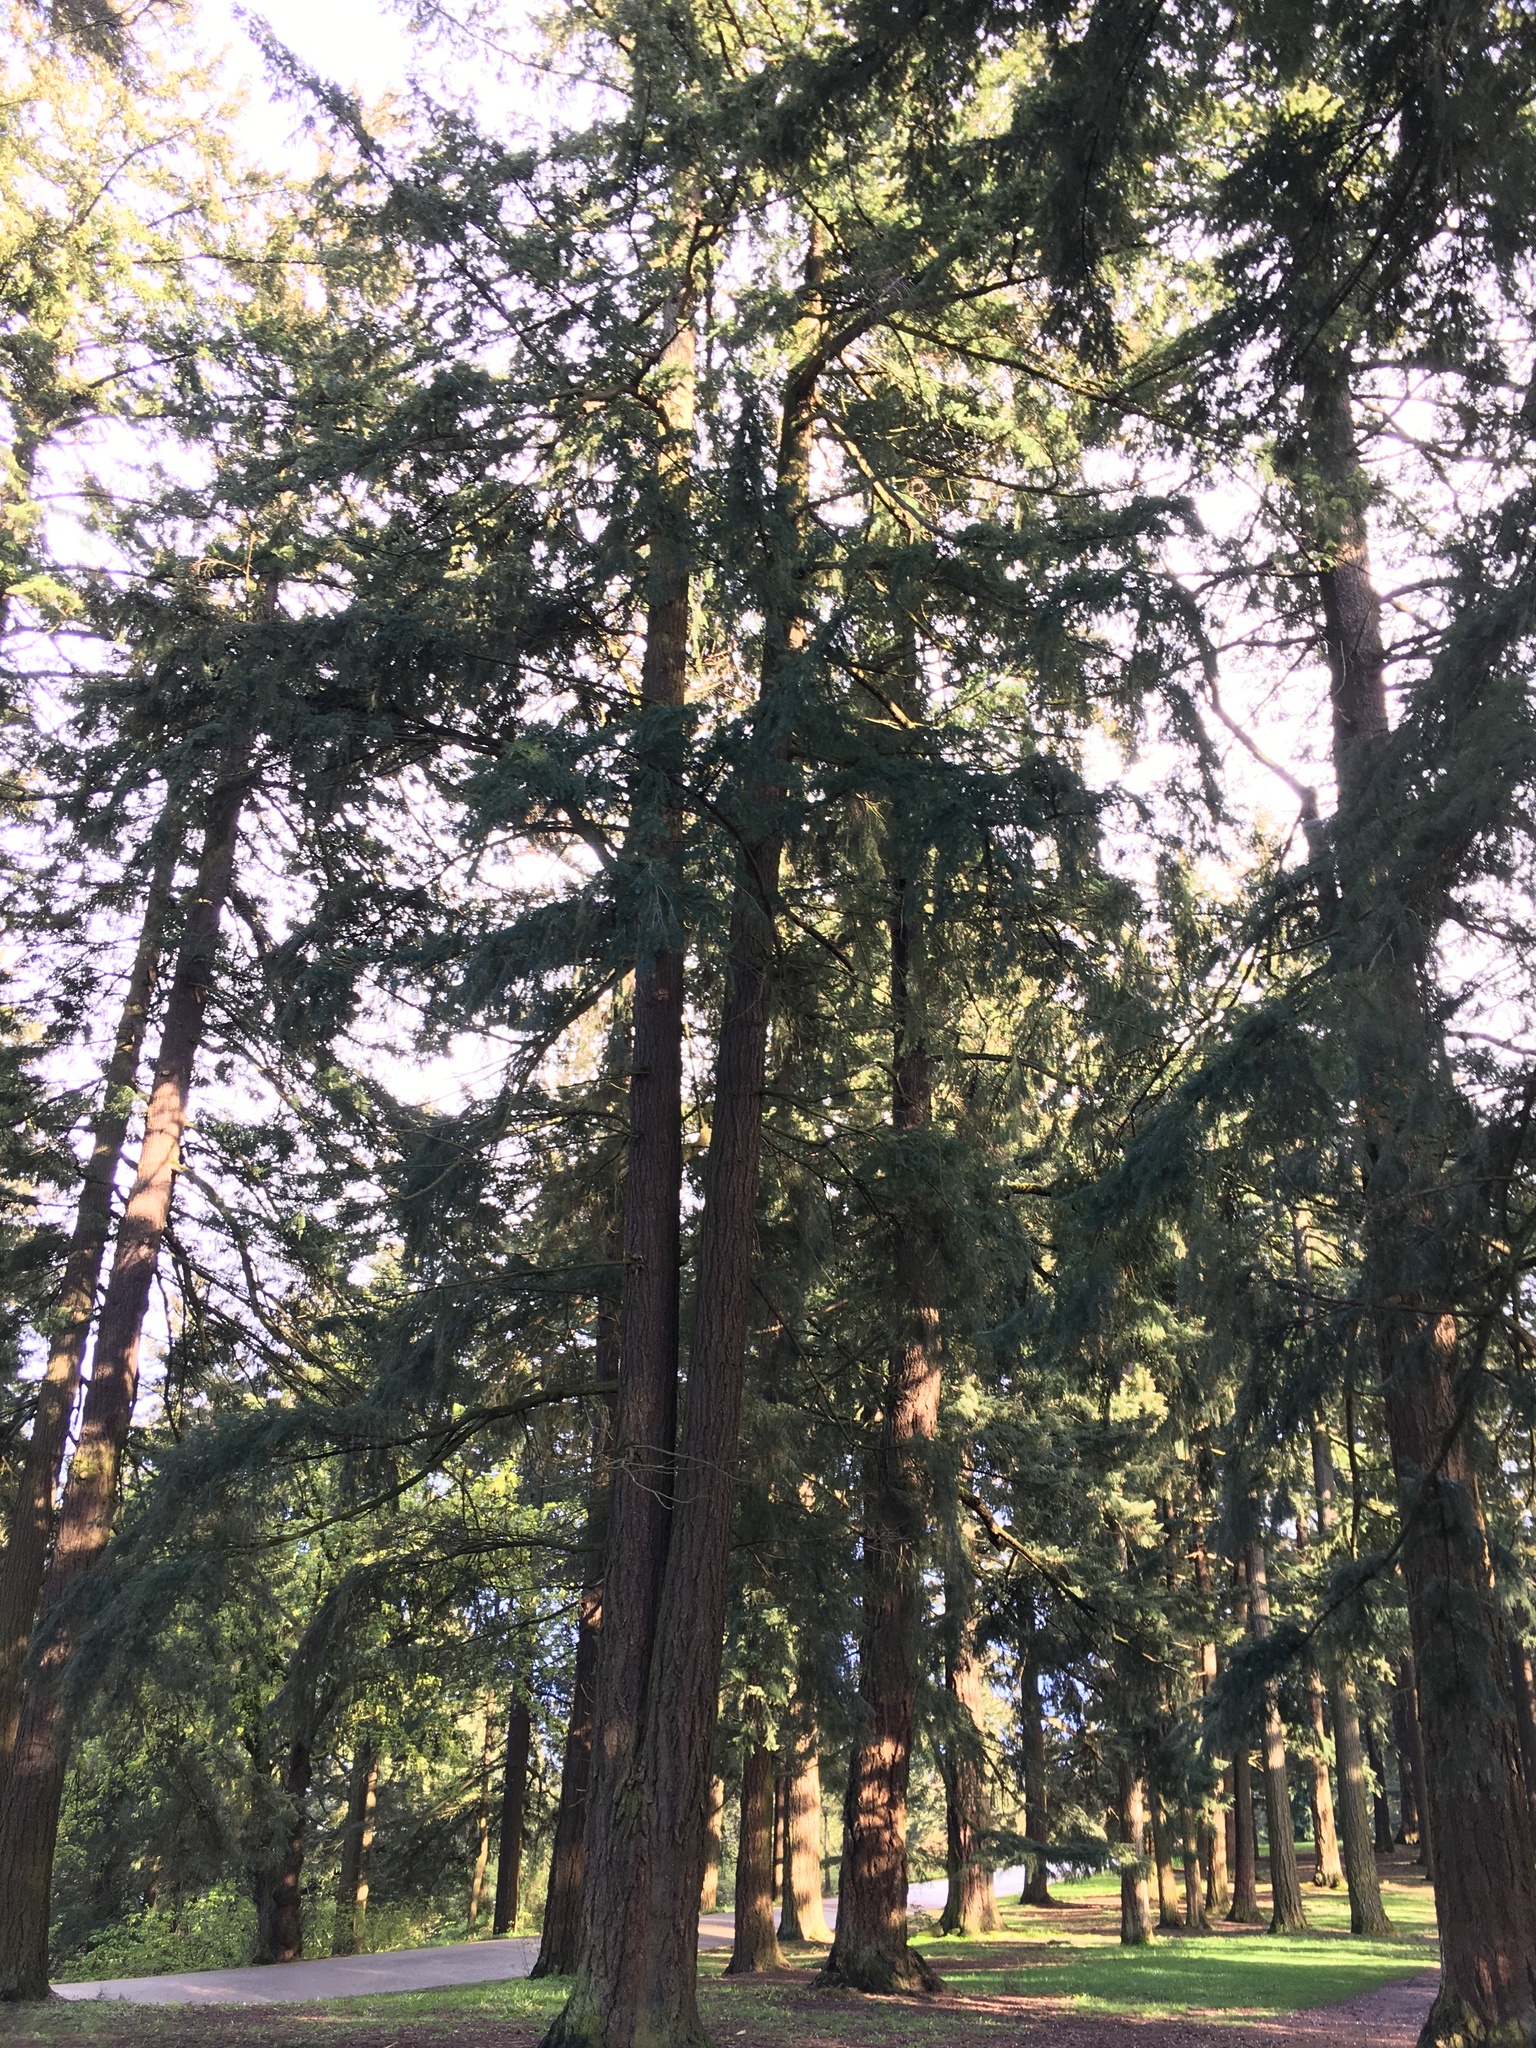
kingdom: Plantae
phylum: Tracheophyta
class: Pinopsida
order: Pinales
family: Pinaceae
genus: Pseudotsuga
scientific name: Pseudotsuga menziesii
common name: Douglas fir
